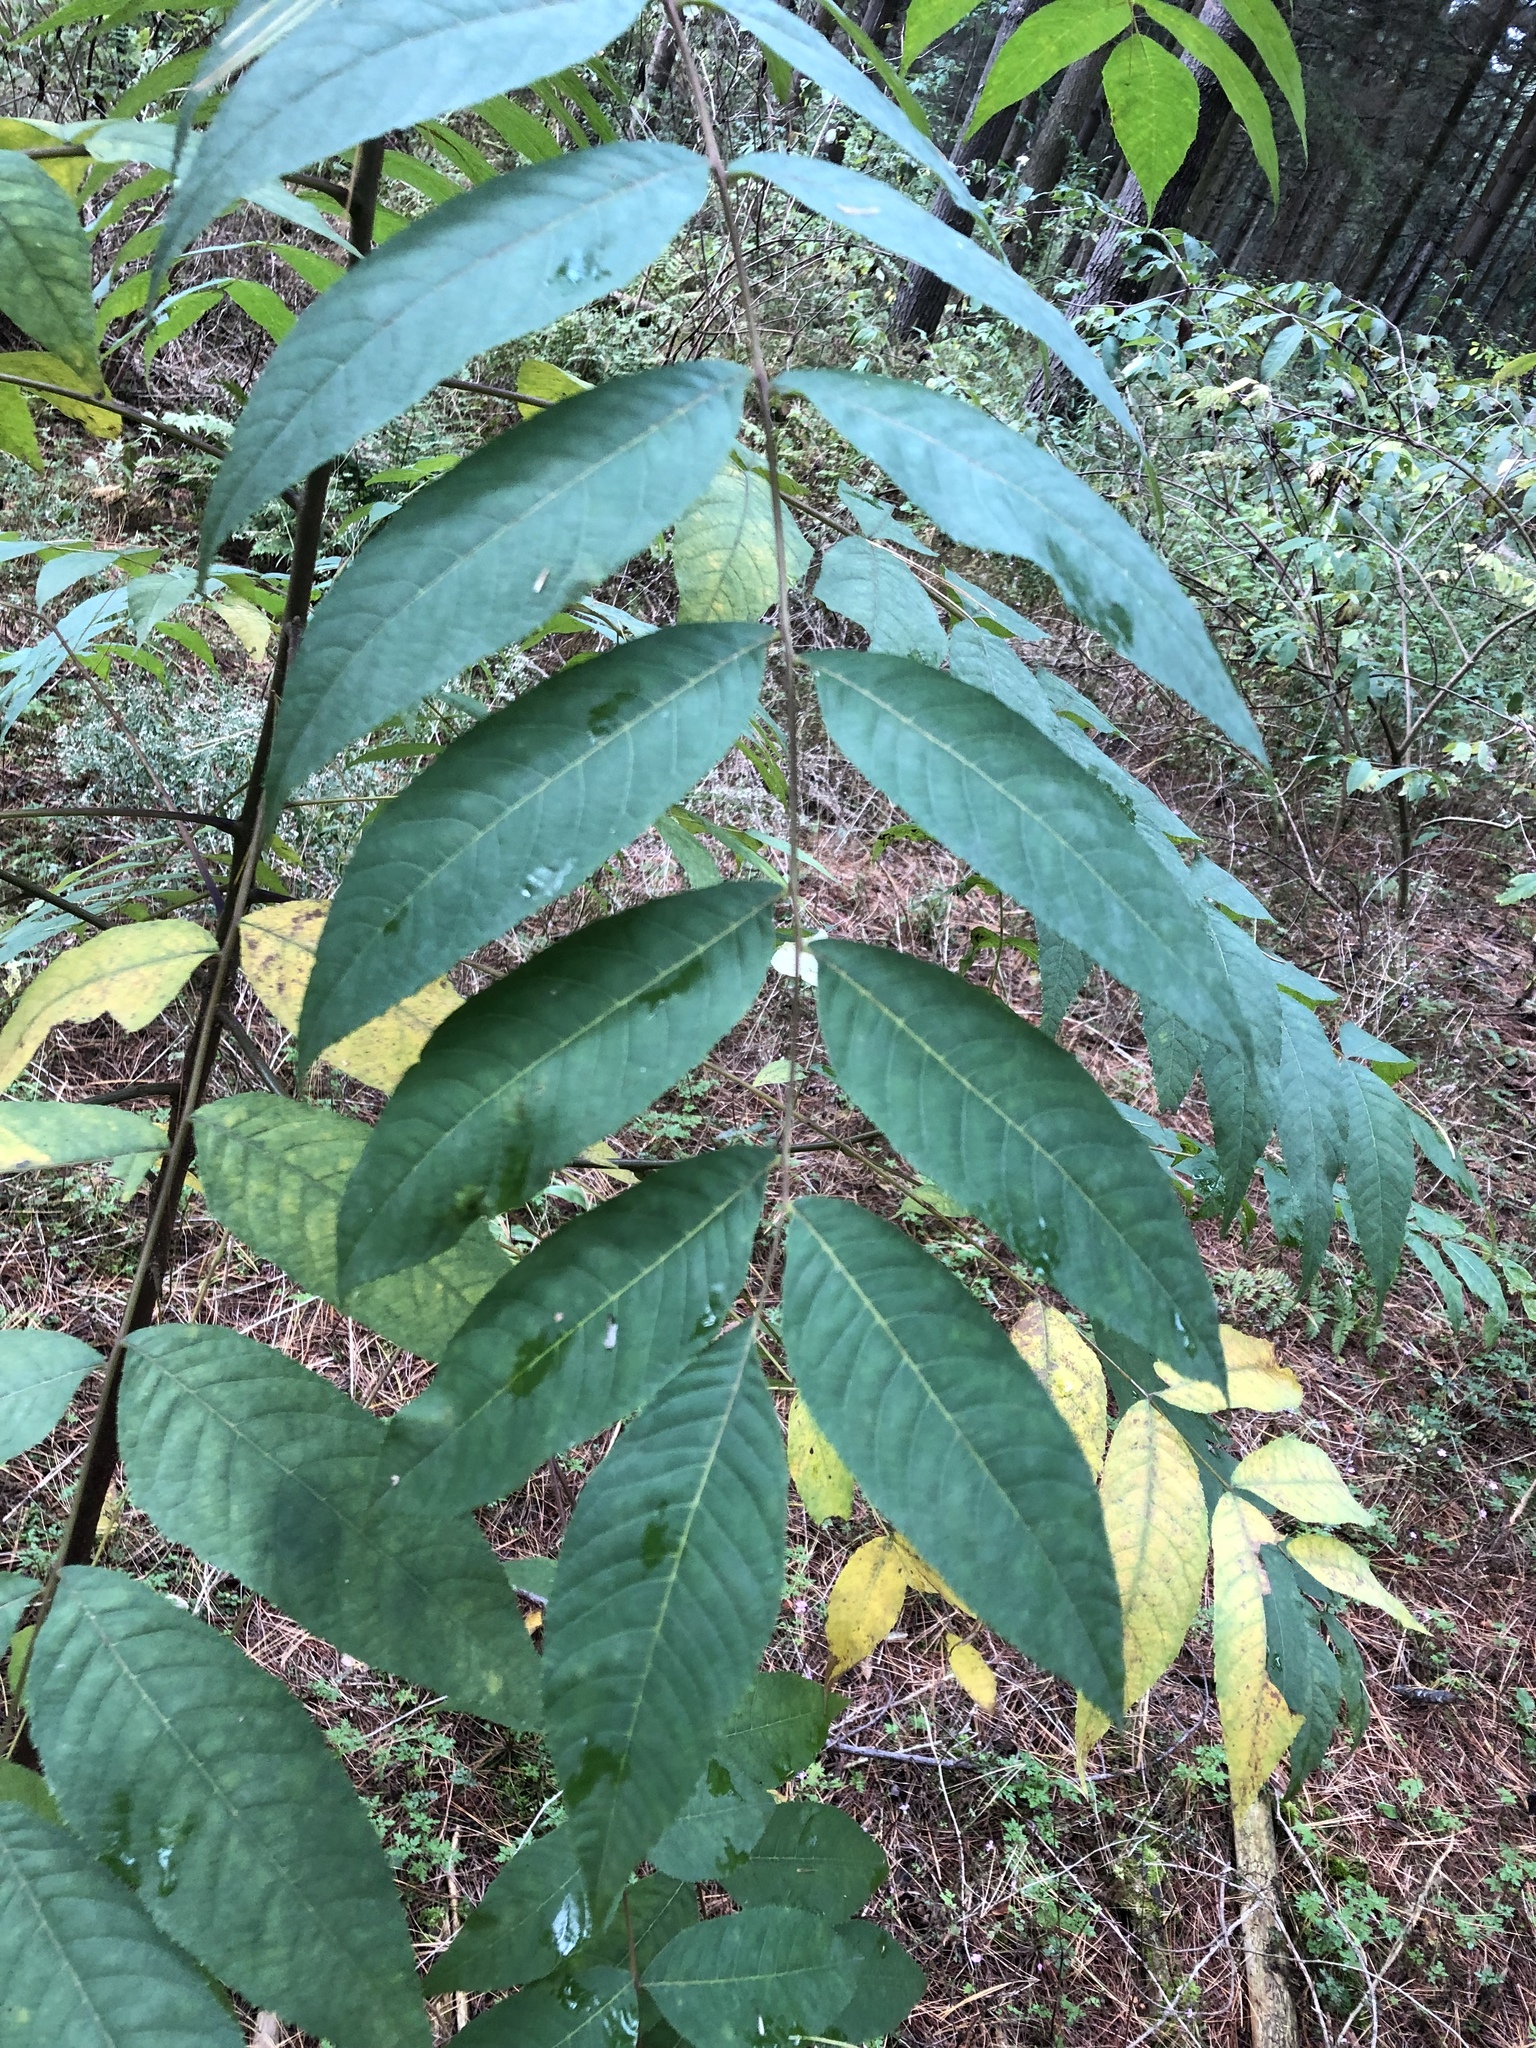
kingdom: Plantae
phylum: Tracheophyta
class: Magnoliopsida
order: Fagales
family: Juglandaceae
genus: Juglans
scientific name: Juglans nigra
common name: Black walnut
